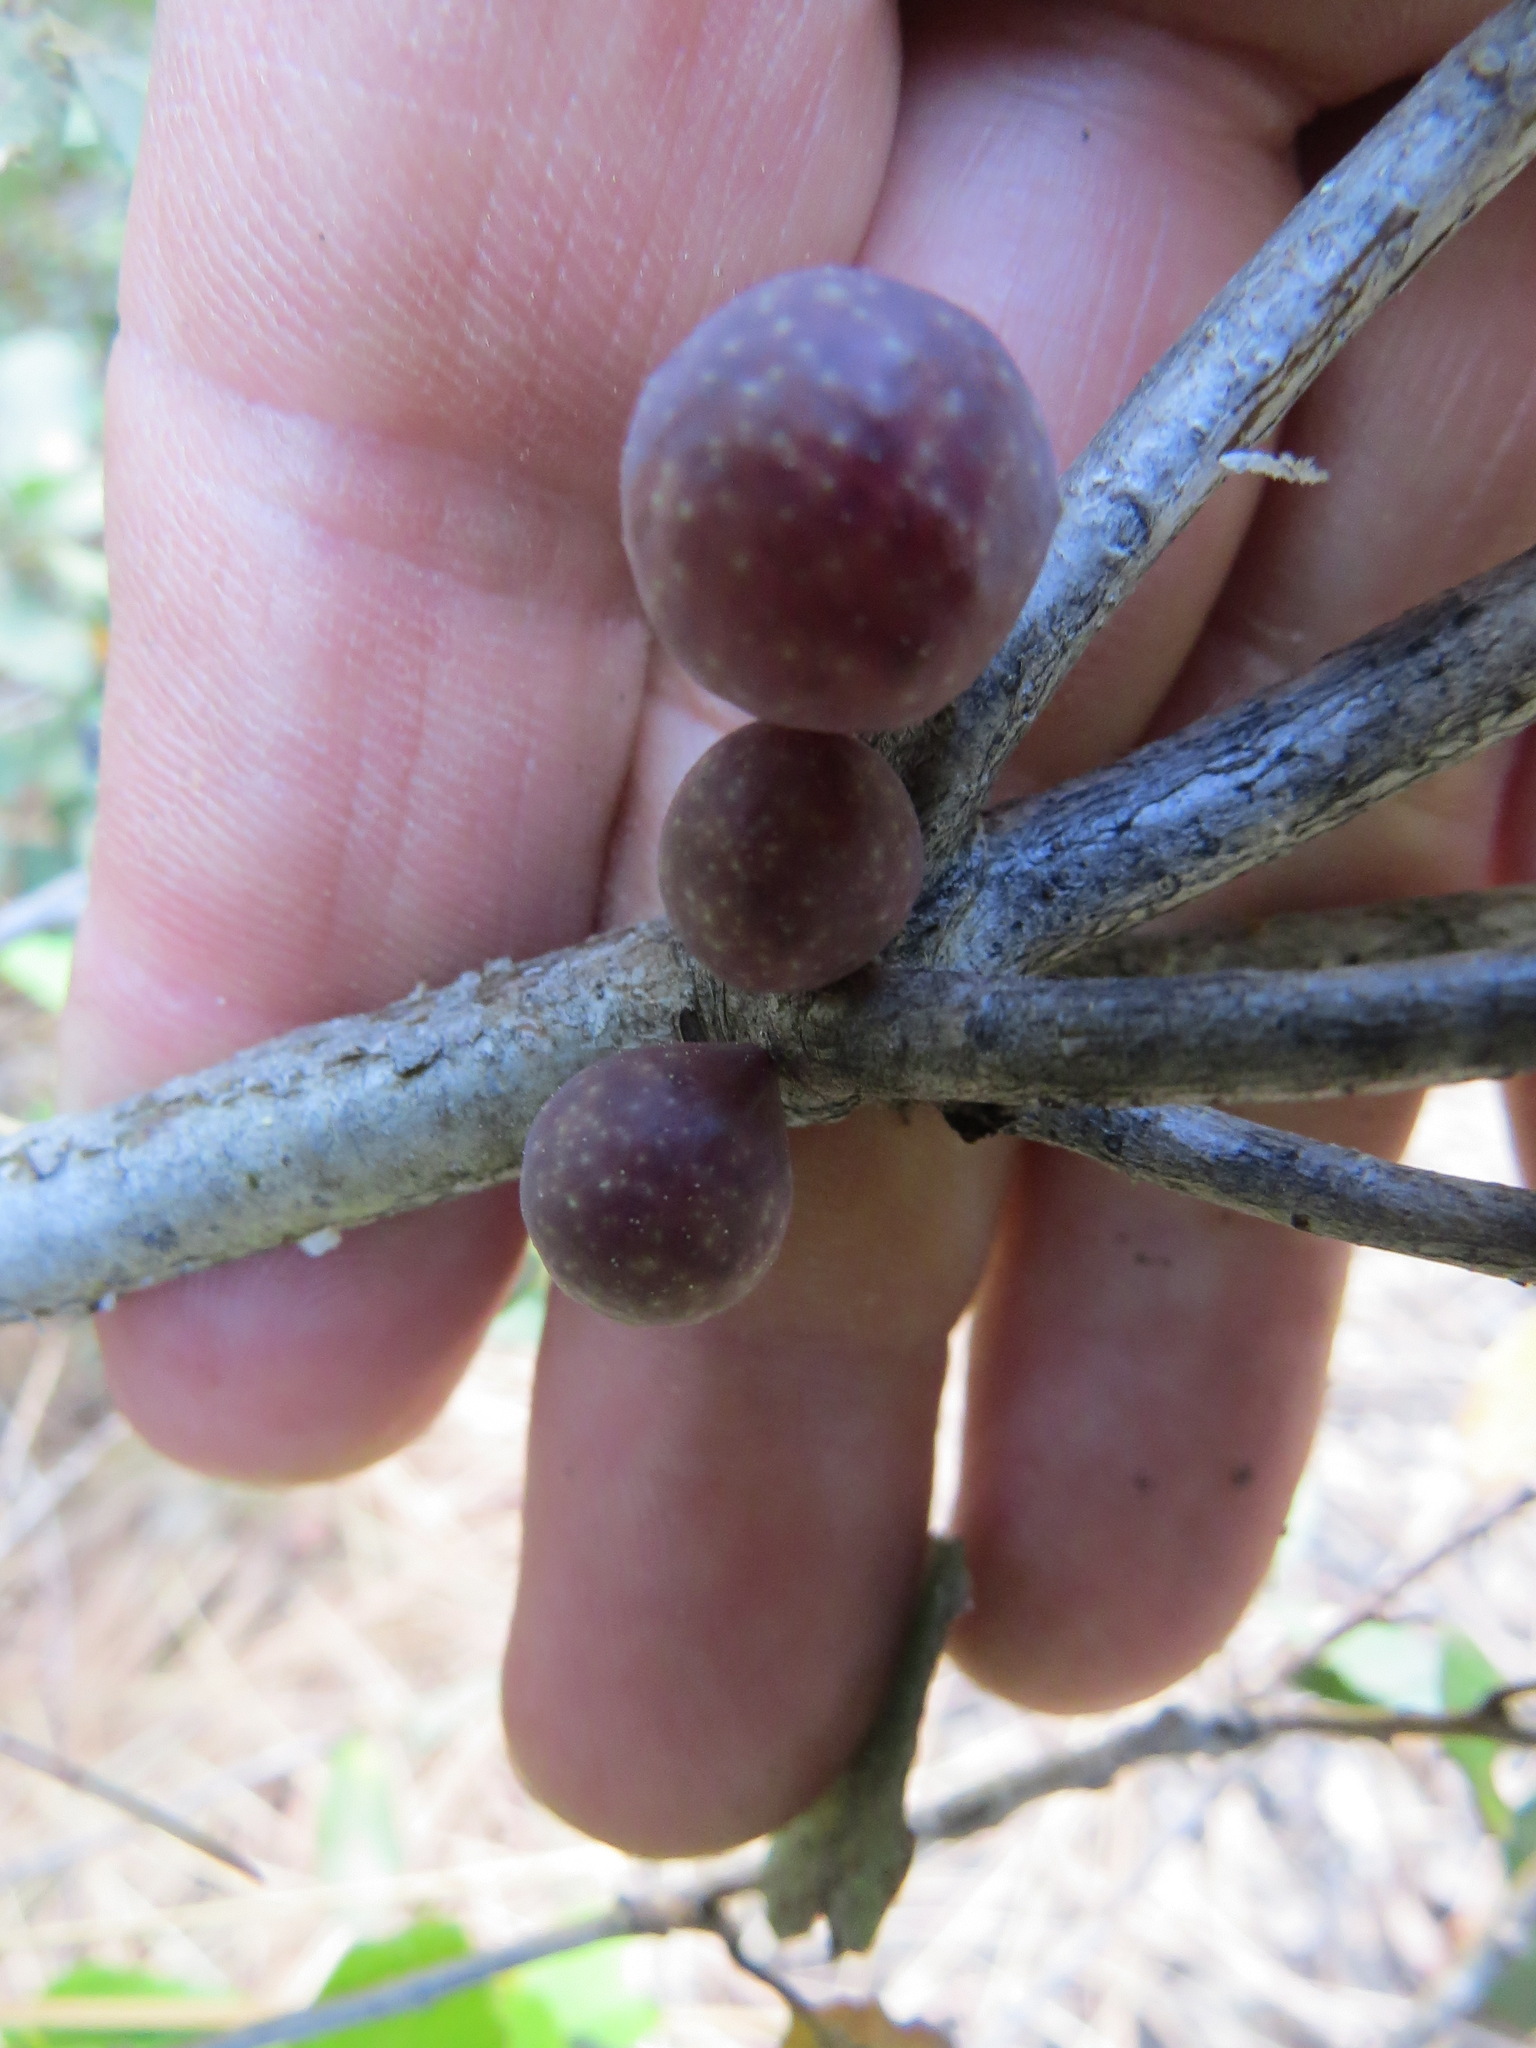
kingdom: Animalia
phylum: Arthropoda
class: Insecta
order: Hymenoptera
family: Cynipidae
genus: Andricus
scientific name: Andricus
